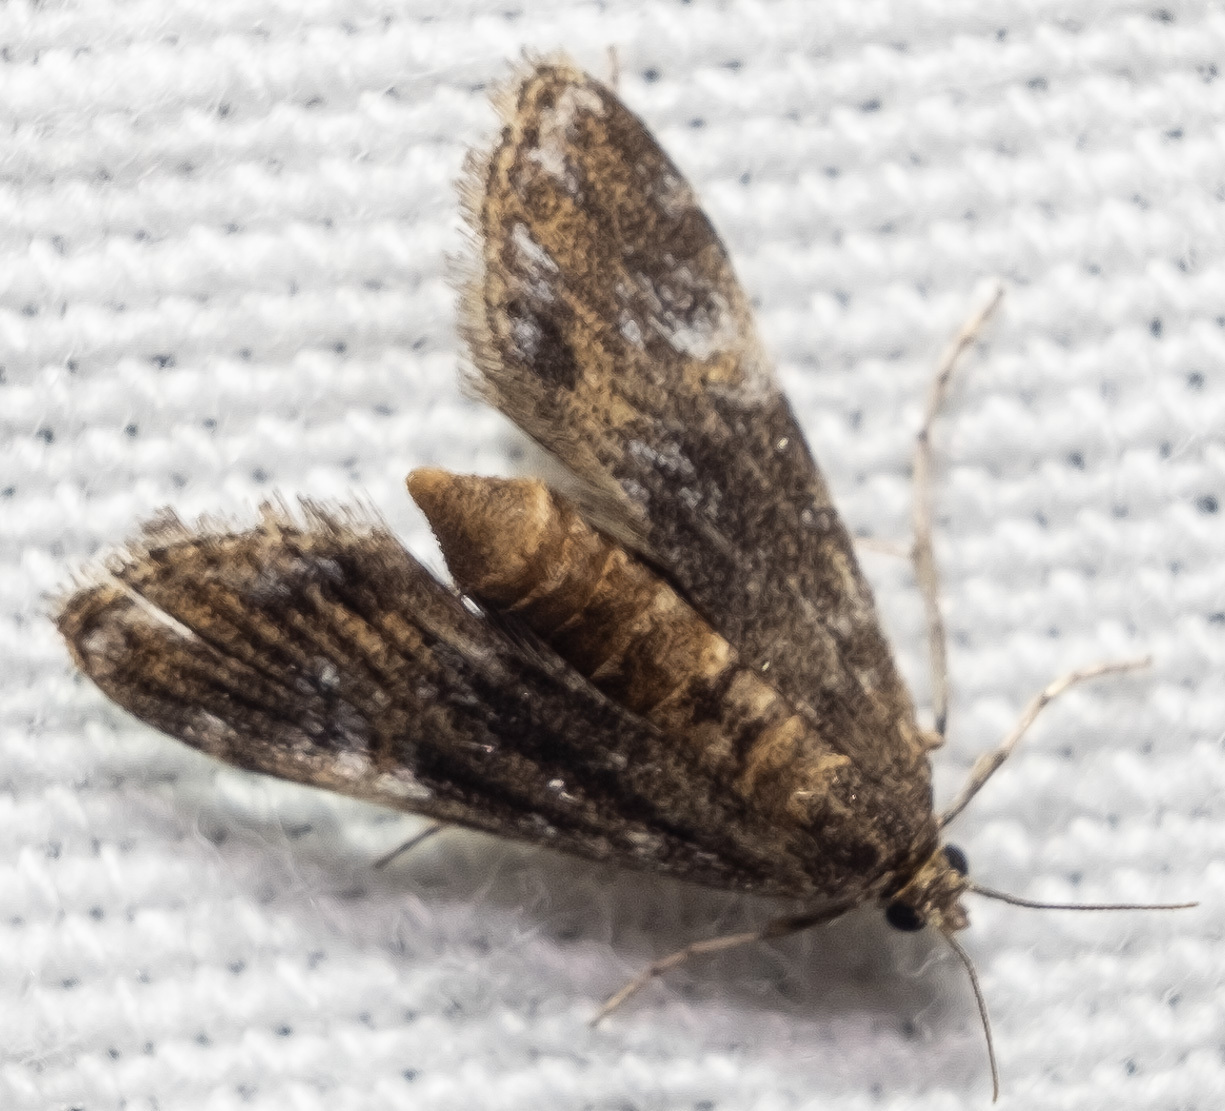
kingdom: Animalia
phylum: Arthropoda
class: Insecta
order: Lepidoptera
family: Crambidae
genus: Elophila
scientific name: Elophila obliteralis
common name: Waterlily leafcutter moth
